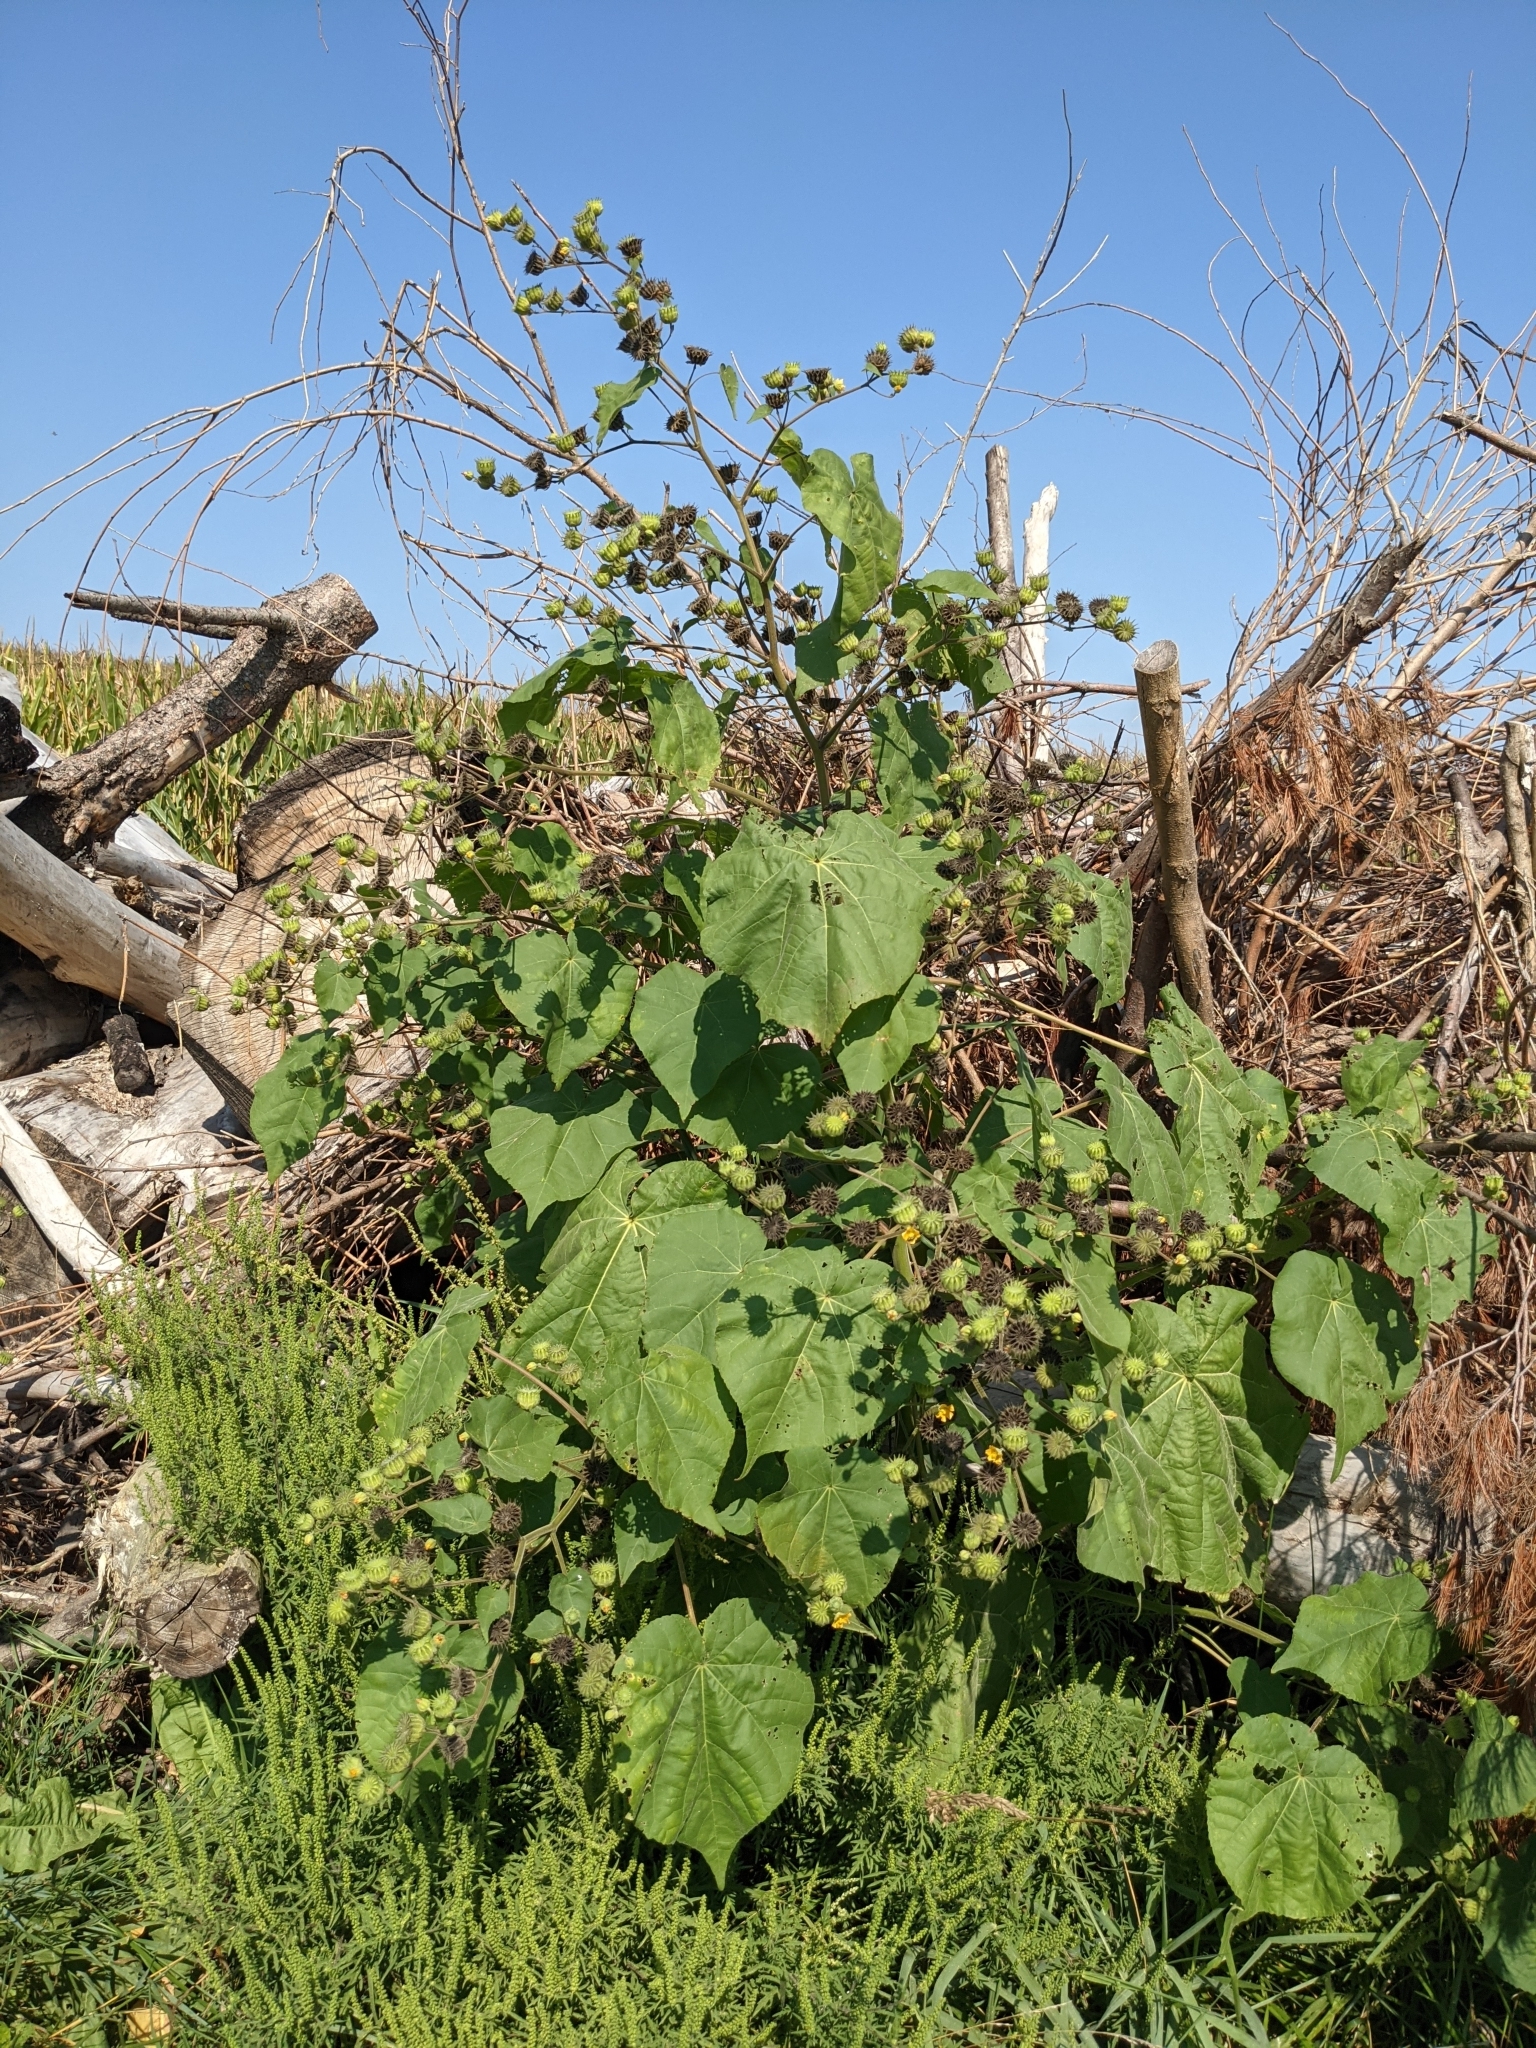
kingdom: Plantae
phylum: Tracheophyta
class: Magnoliopsida
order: Malvales
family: Malvaceae
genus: Abutilon
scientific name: Abutilon theophrasti
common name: Velvetleaf
